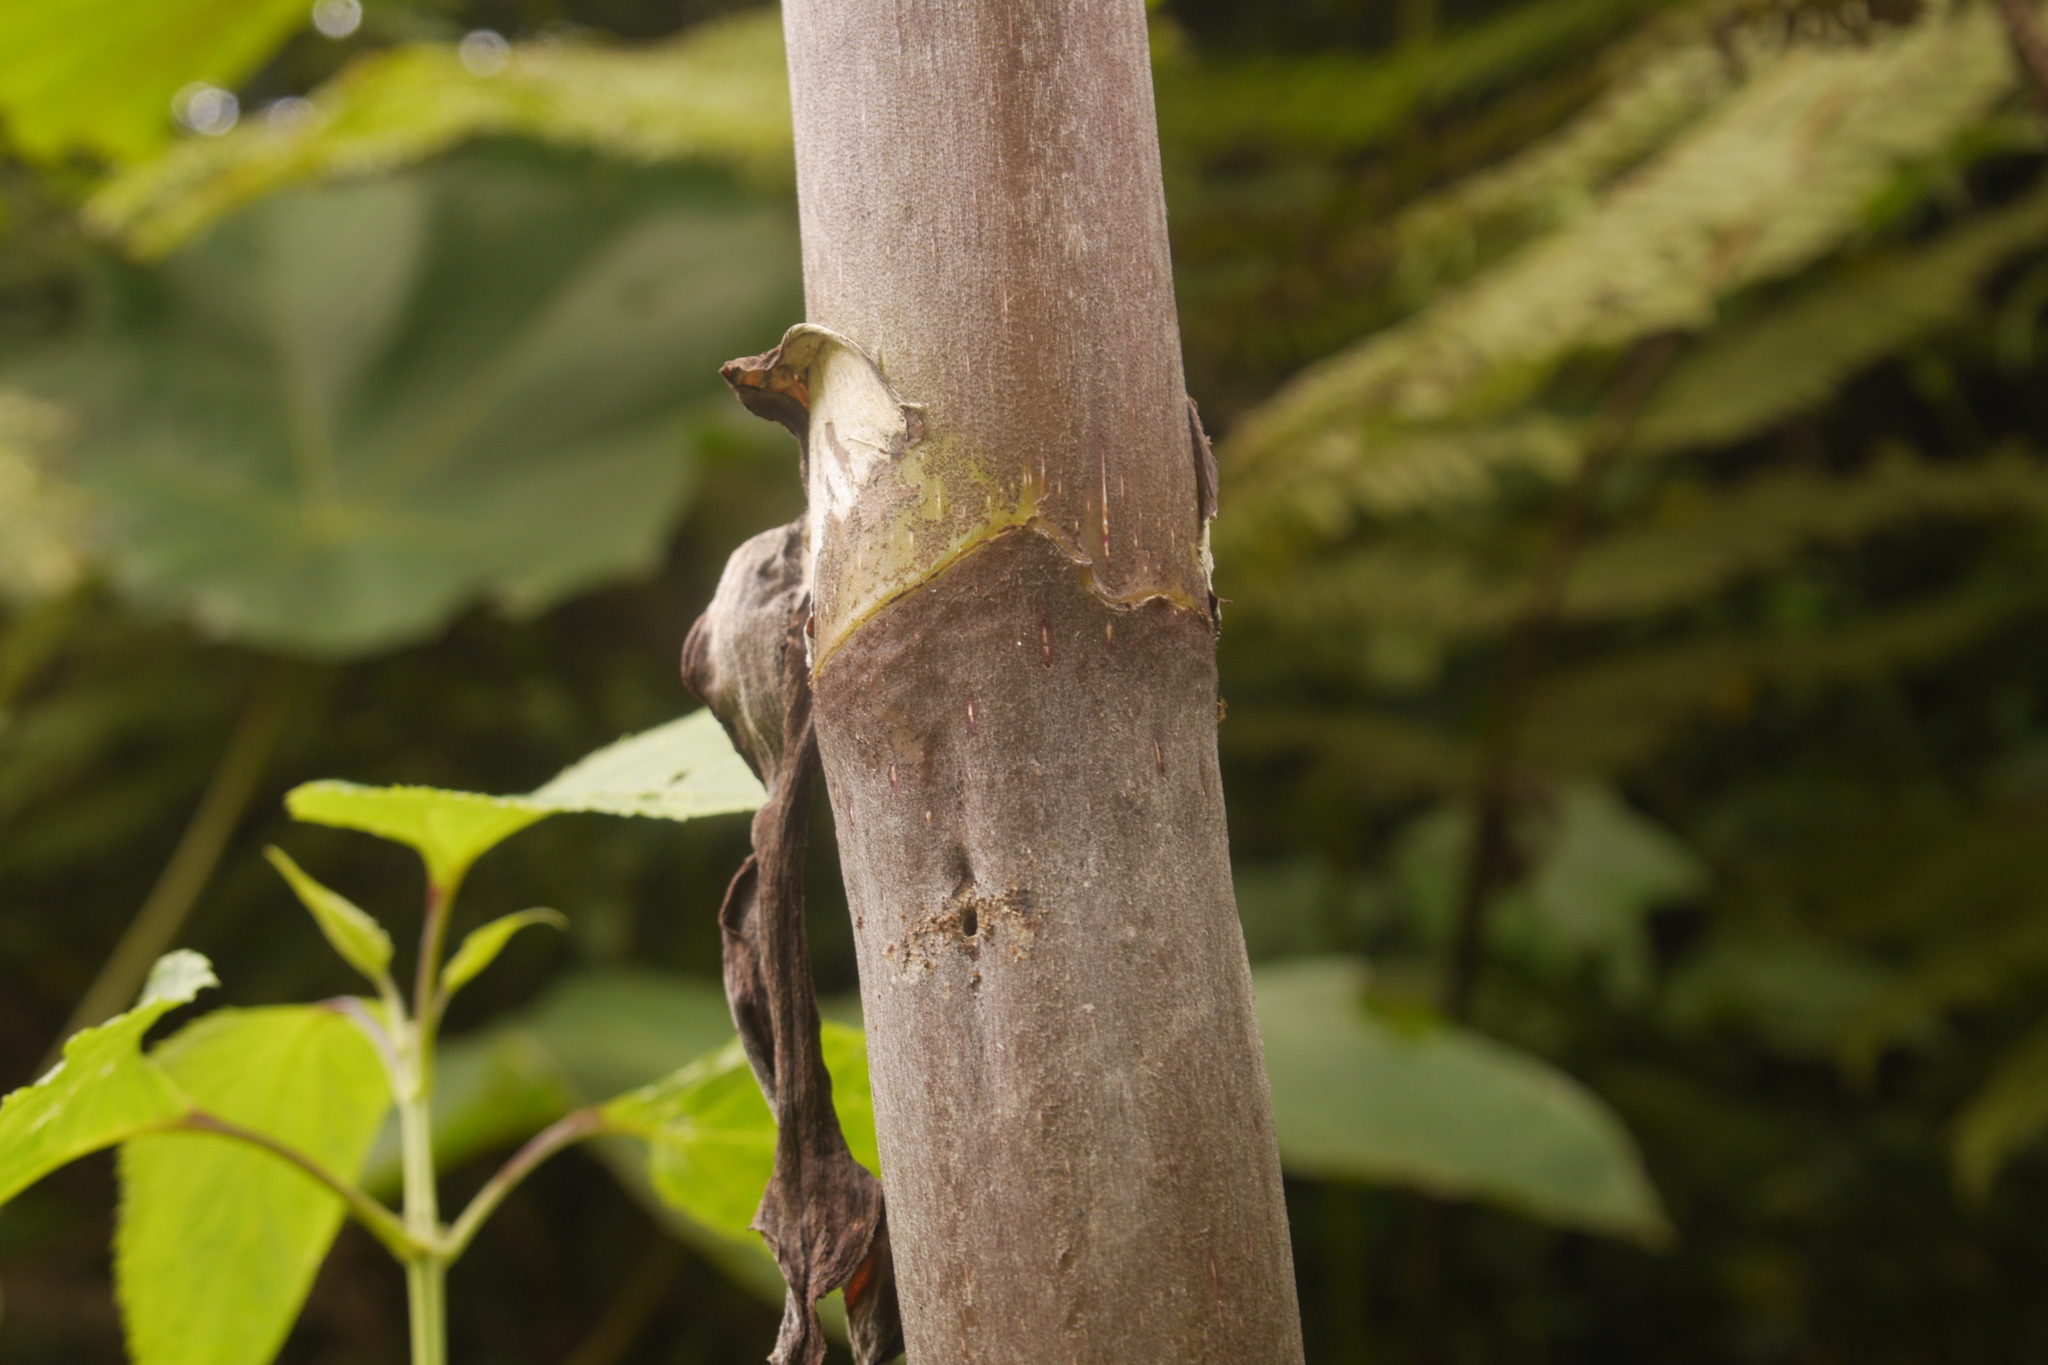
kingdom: Plantae
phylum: Tracheophyta
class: Magnoliopsida
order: Rosales
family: Urticaceae
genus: Cecropia
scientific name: Cecropia insignis
